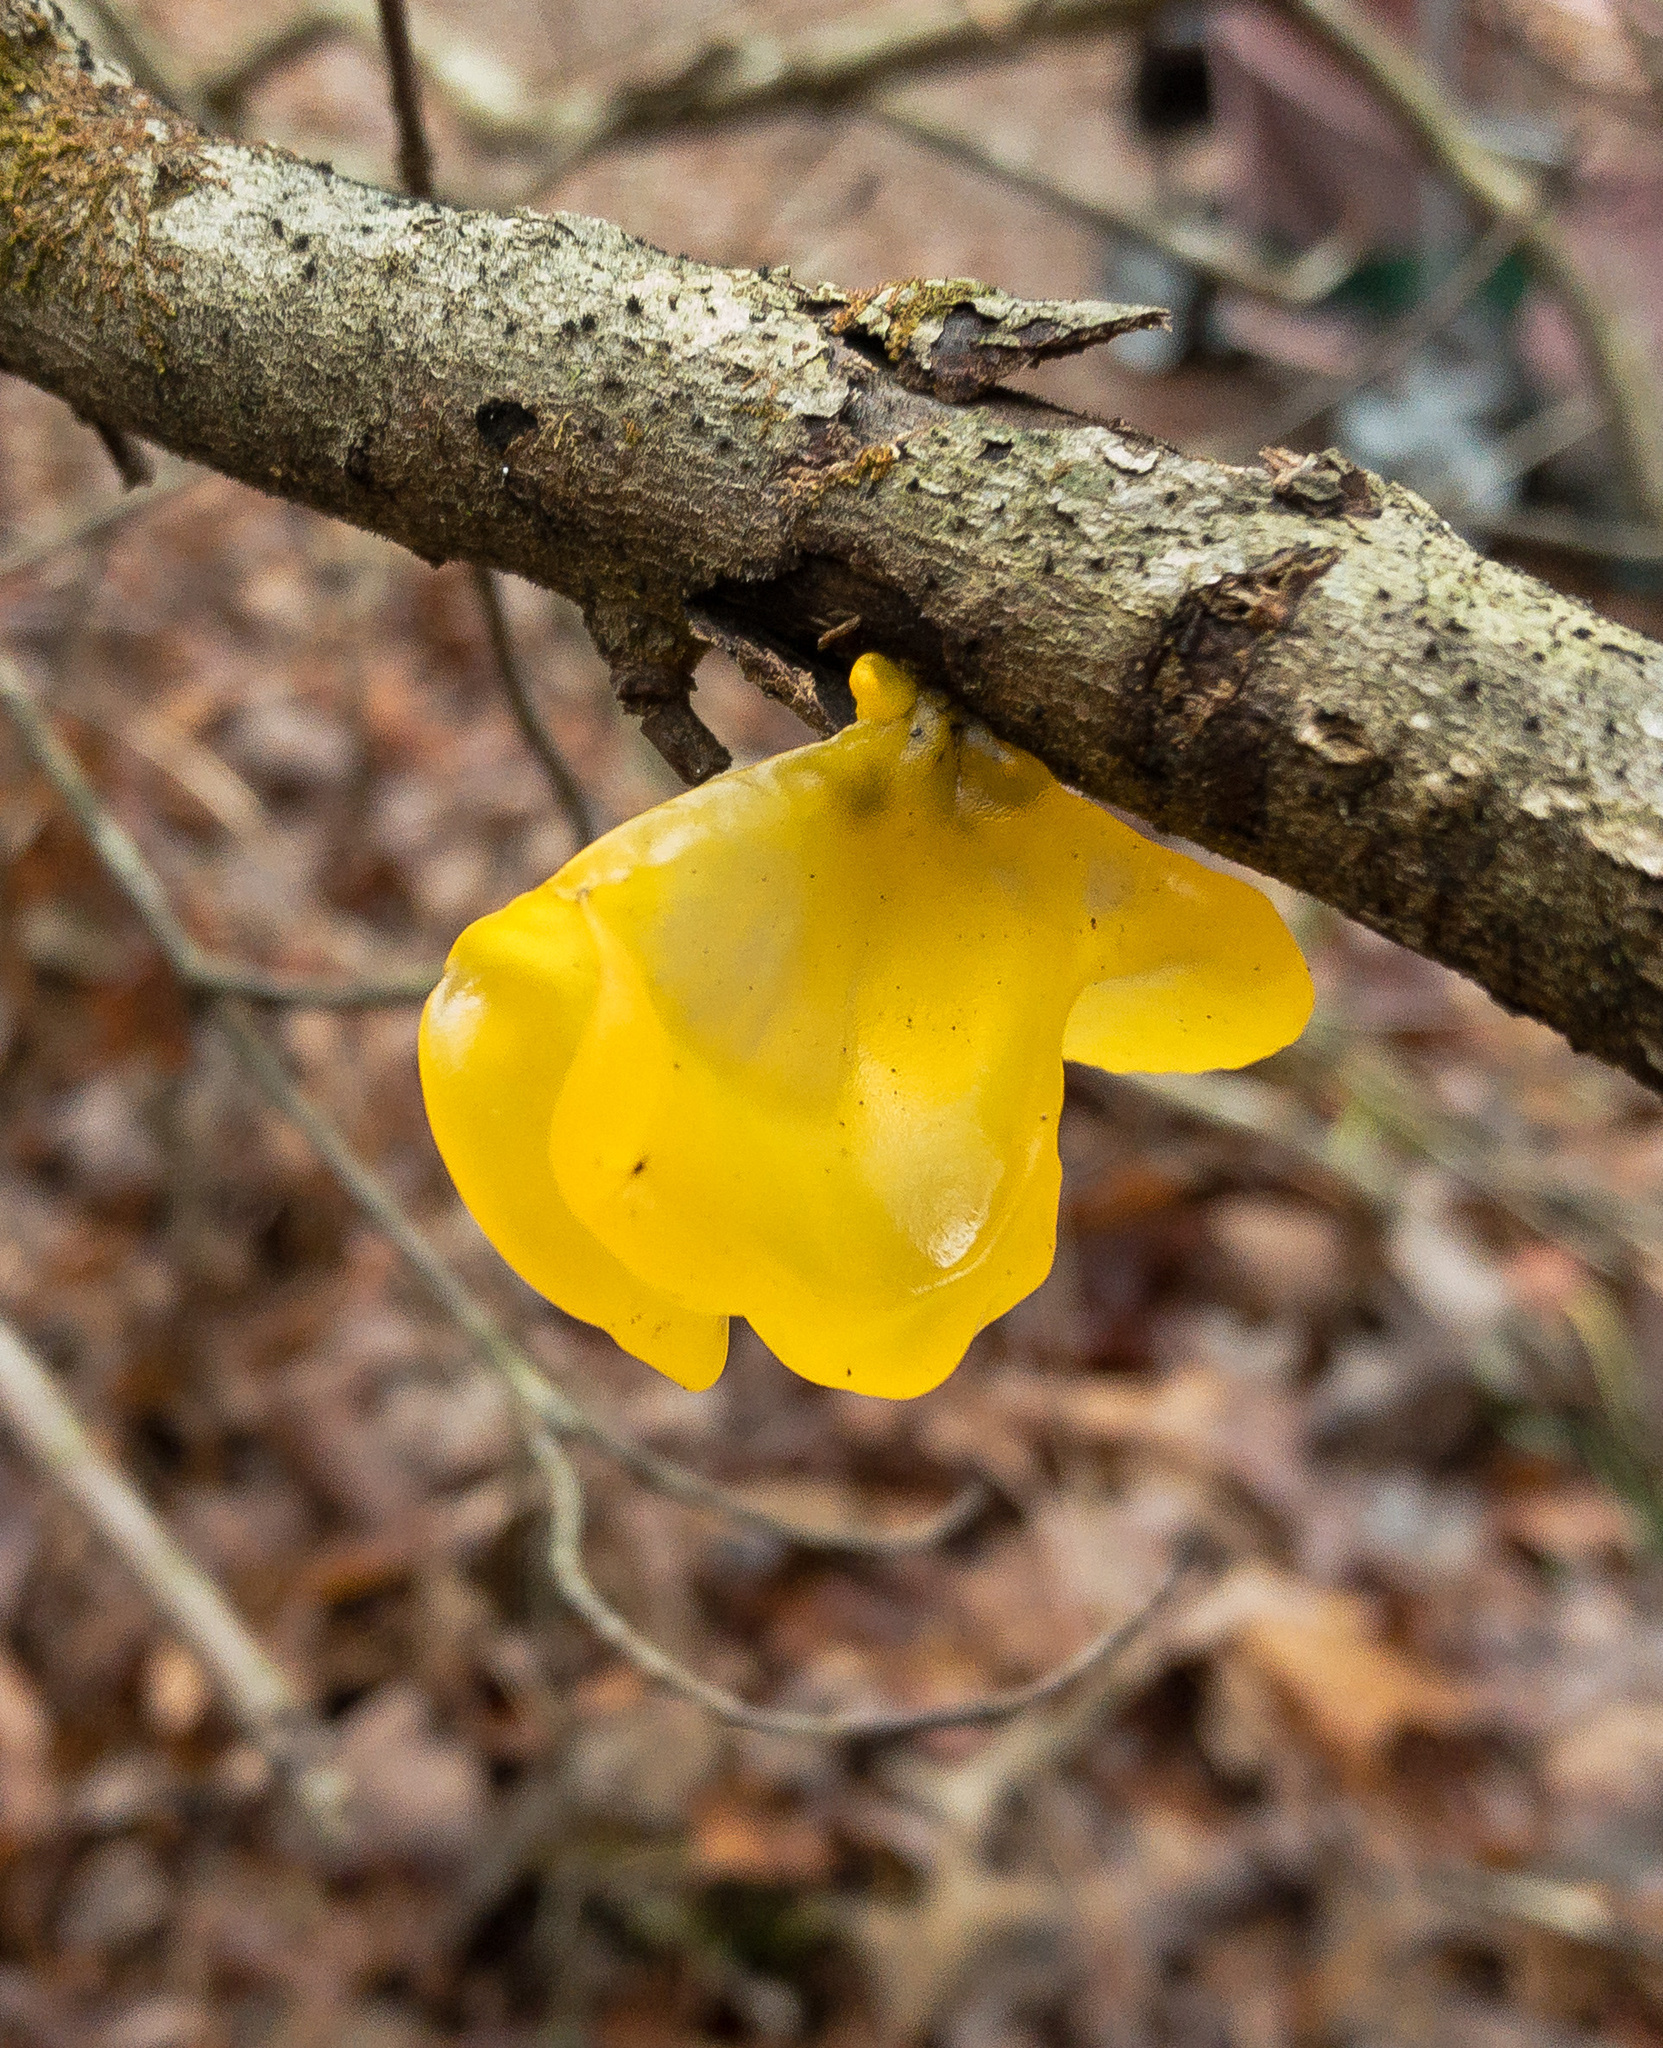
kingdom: Fungi
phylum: Basidiomycota
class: Tremellomycetes
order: Tremellales
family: Tremellaceae
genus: Tremella
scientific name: Tremella mesenterica
